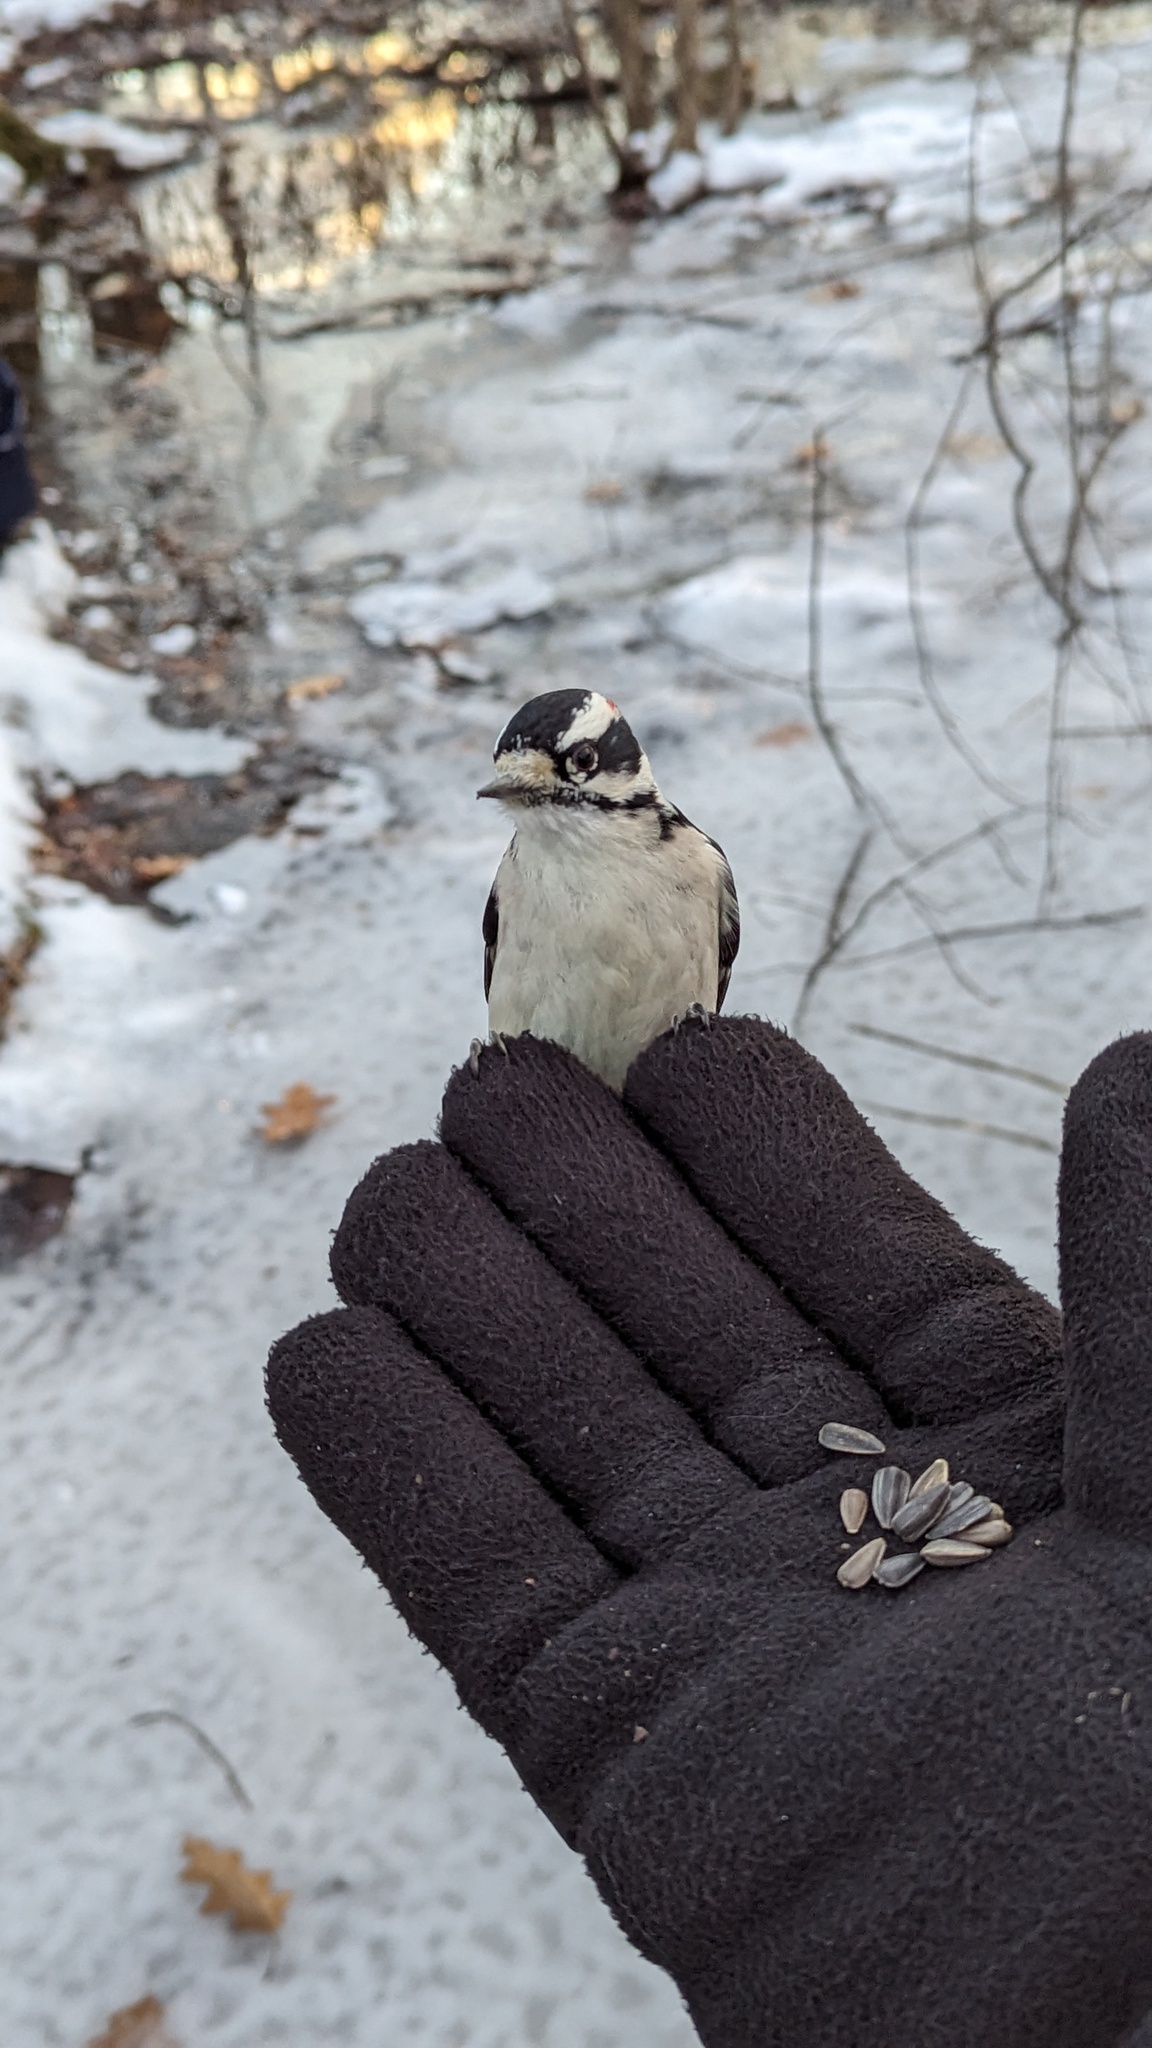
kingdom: Animalia
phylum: Chordata
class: Aves
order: Piciformes
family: Picidae
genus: Dryobates
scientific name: Dryobates pubescens
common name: Downy woodpecker
